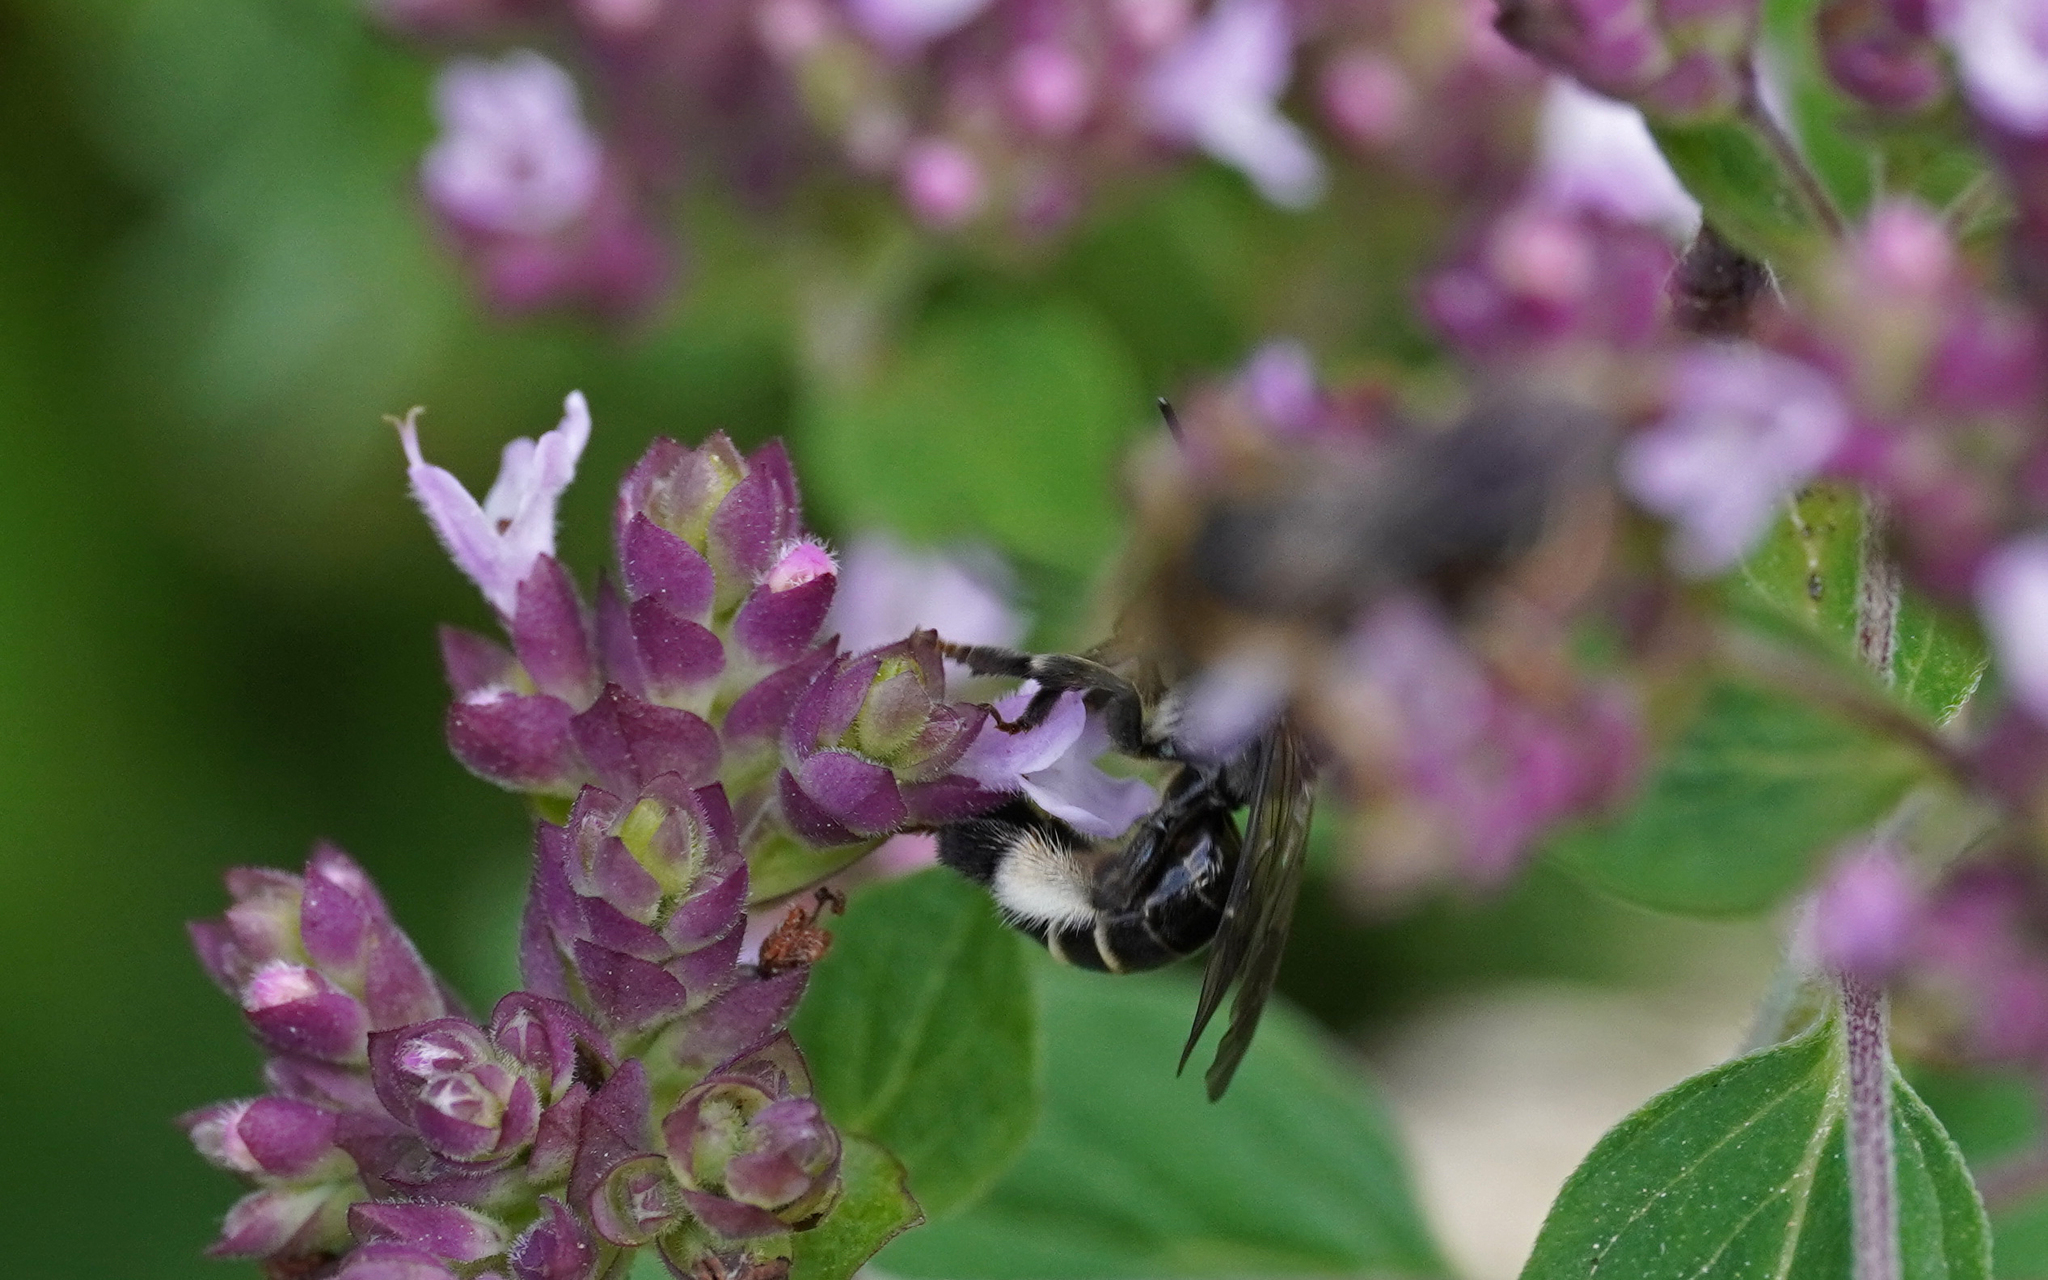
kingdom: Animalia
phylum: Arthropoda
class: Insecta
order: Hymenoptera
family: Melittidae
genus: Macropis
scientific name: Macropis europaea
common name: Yellow loosestrife bee
